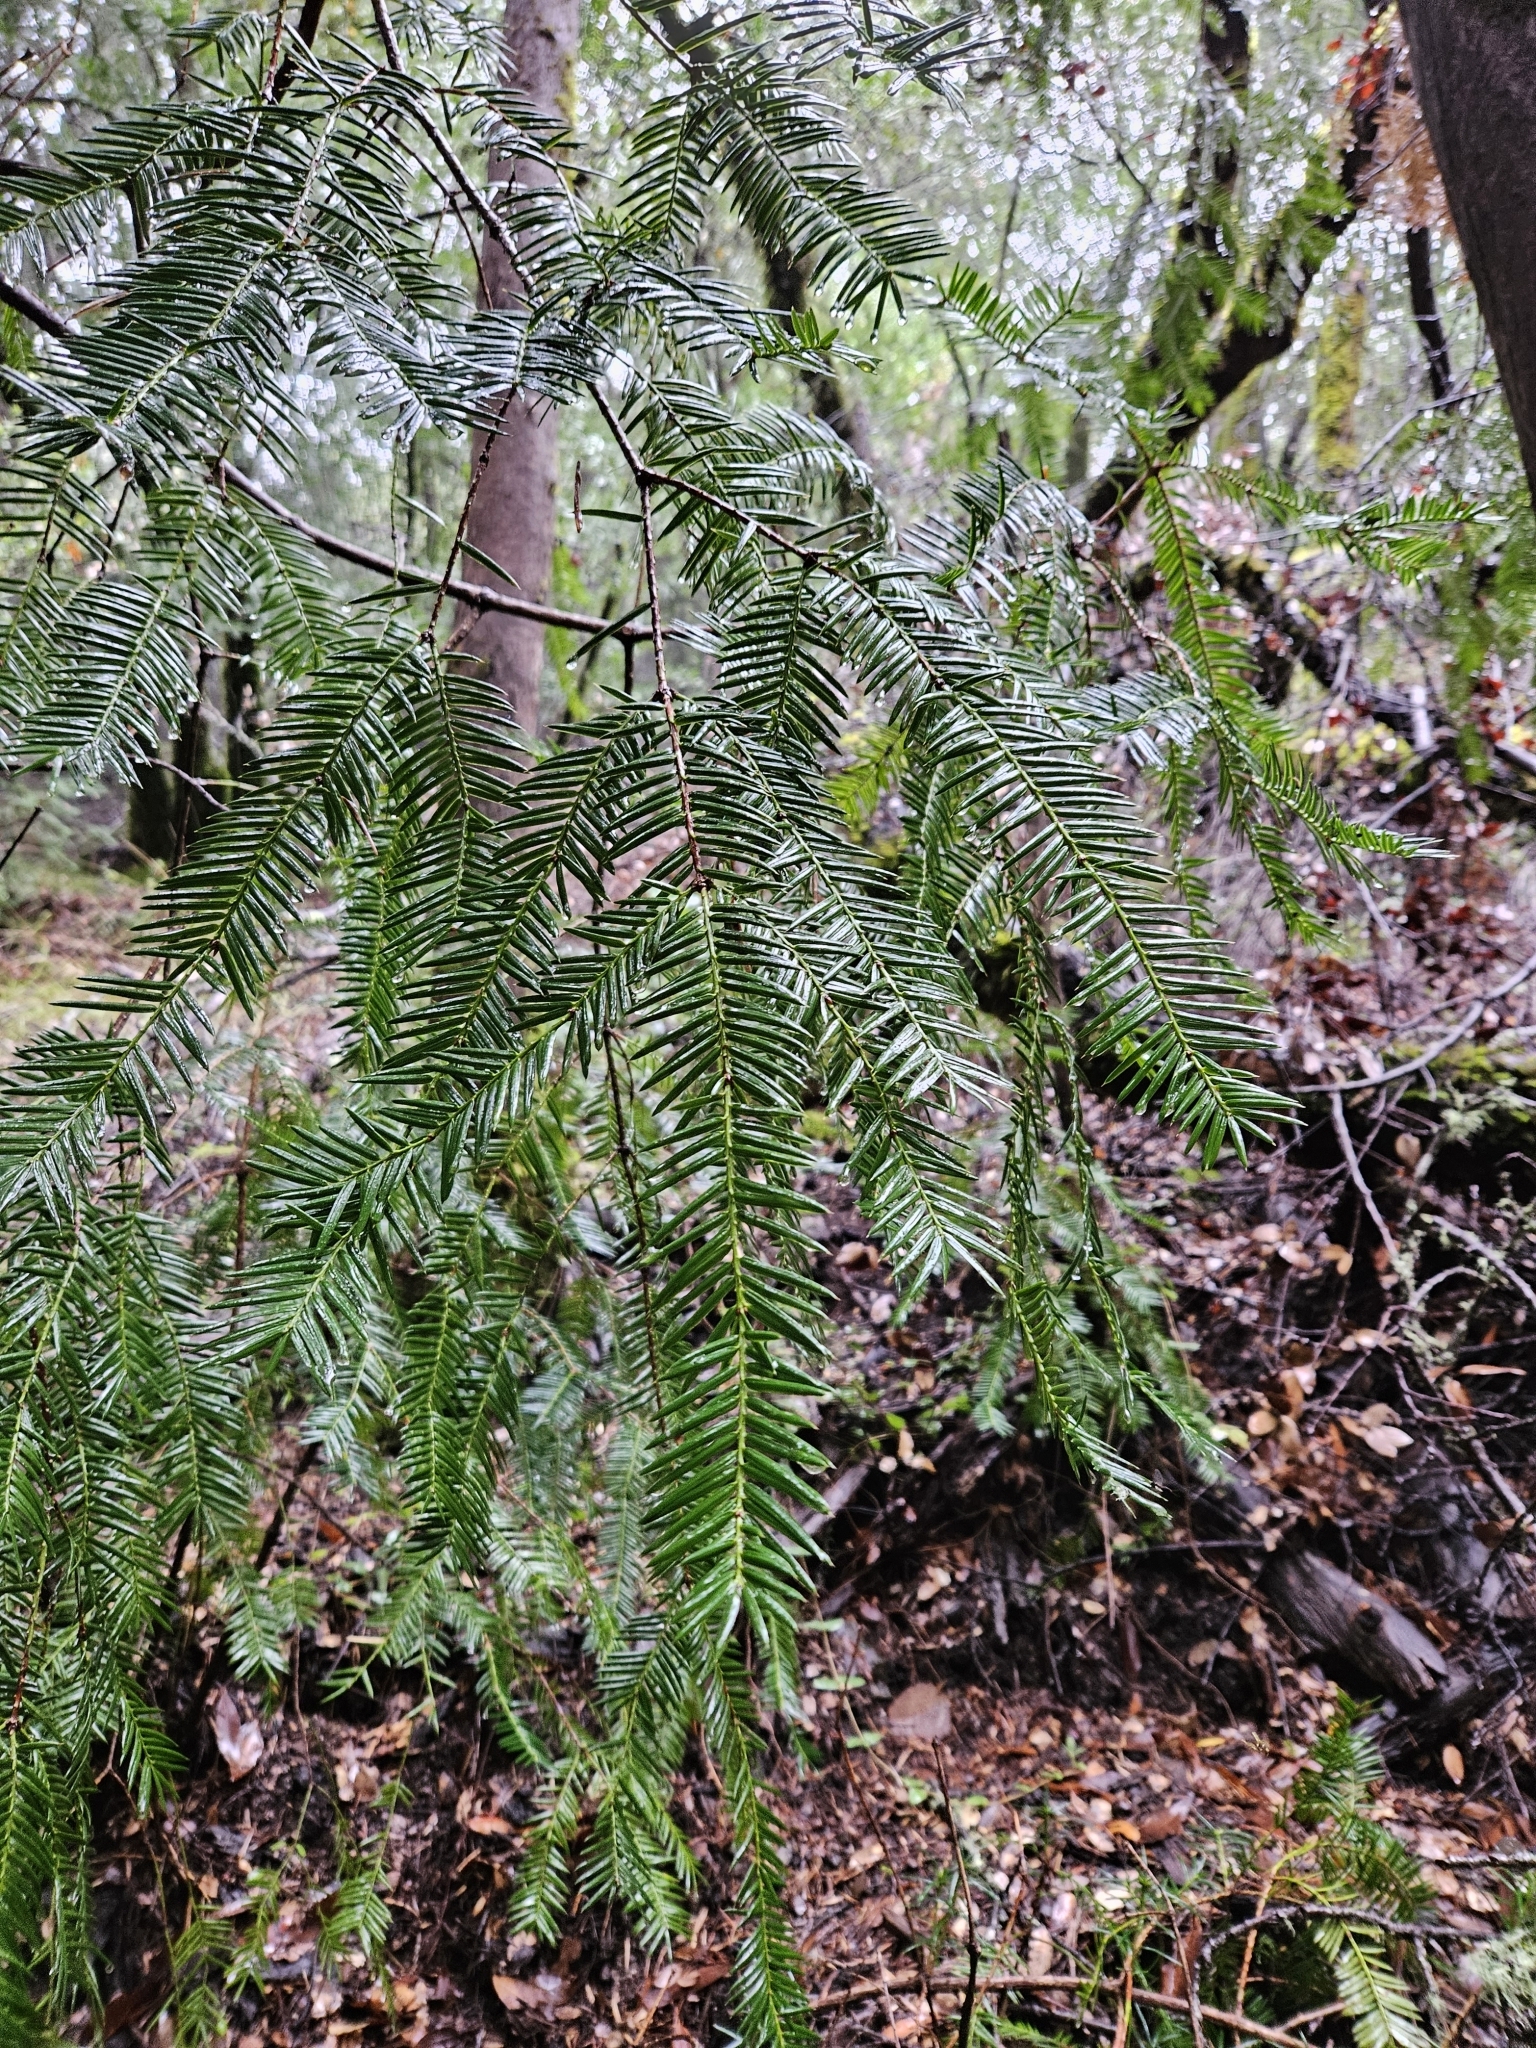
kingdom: Plantae
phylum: Tracheophyta
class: Pinopsida
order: Pinales
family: Taxaceae
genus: Torreya
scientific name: Torreya californica
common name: California torreya
